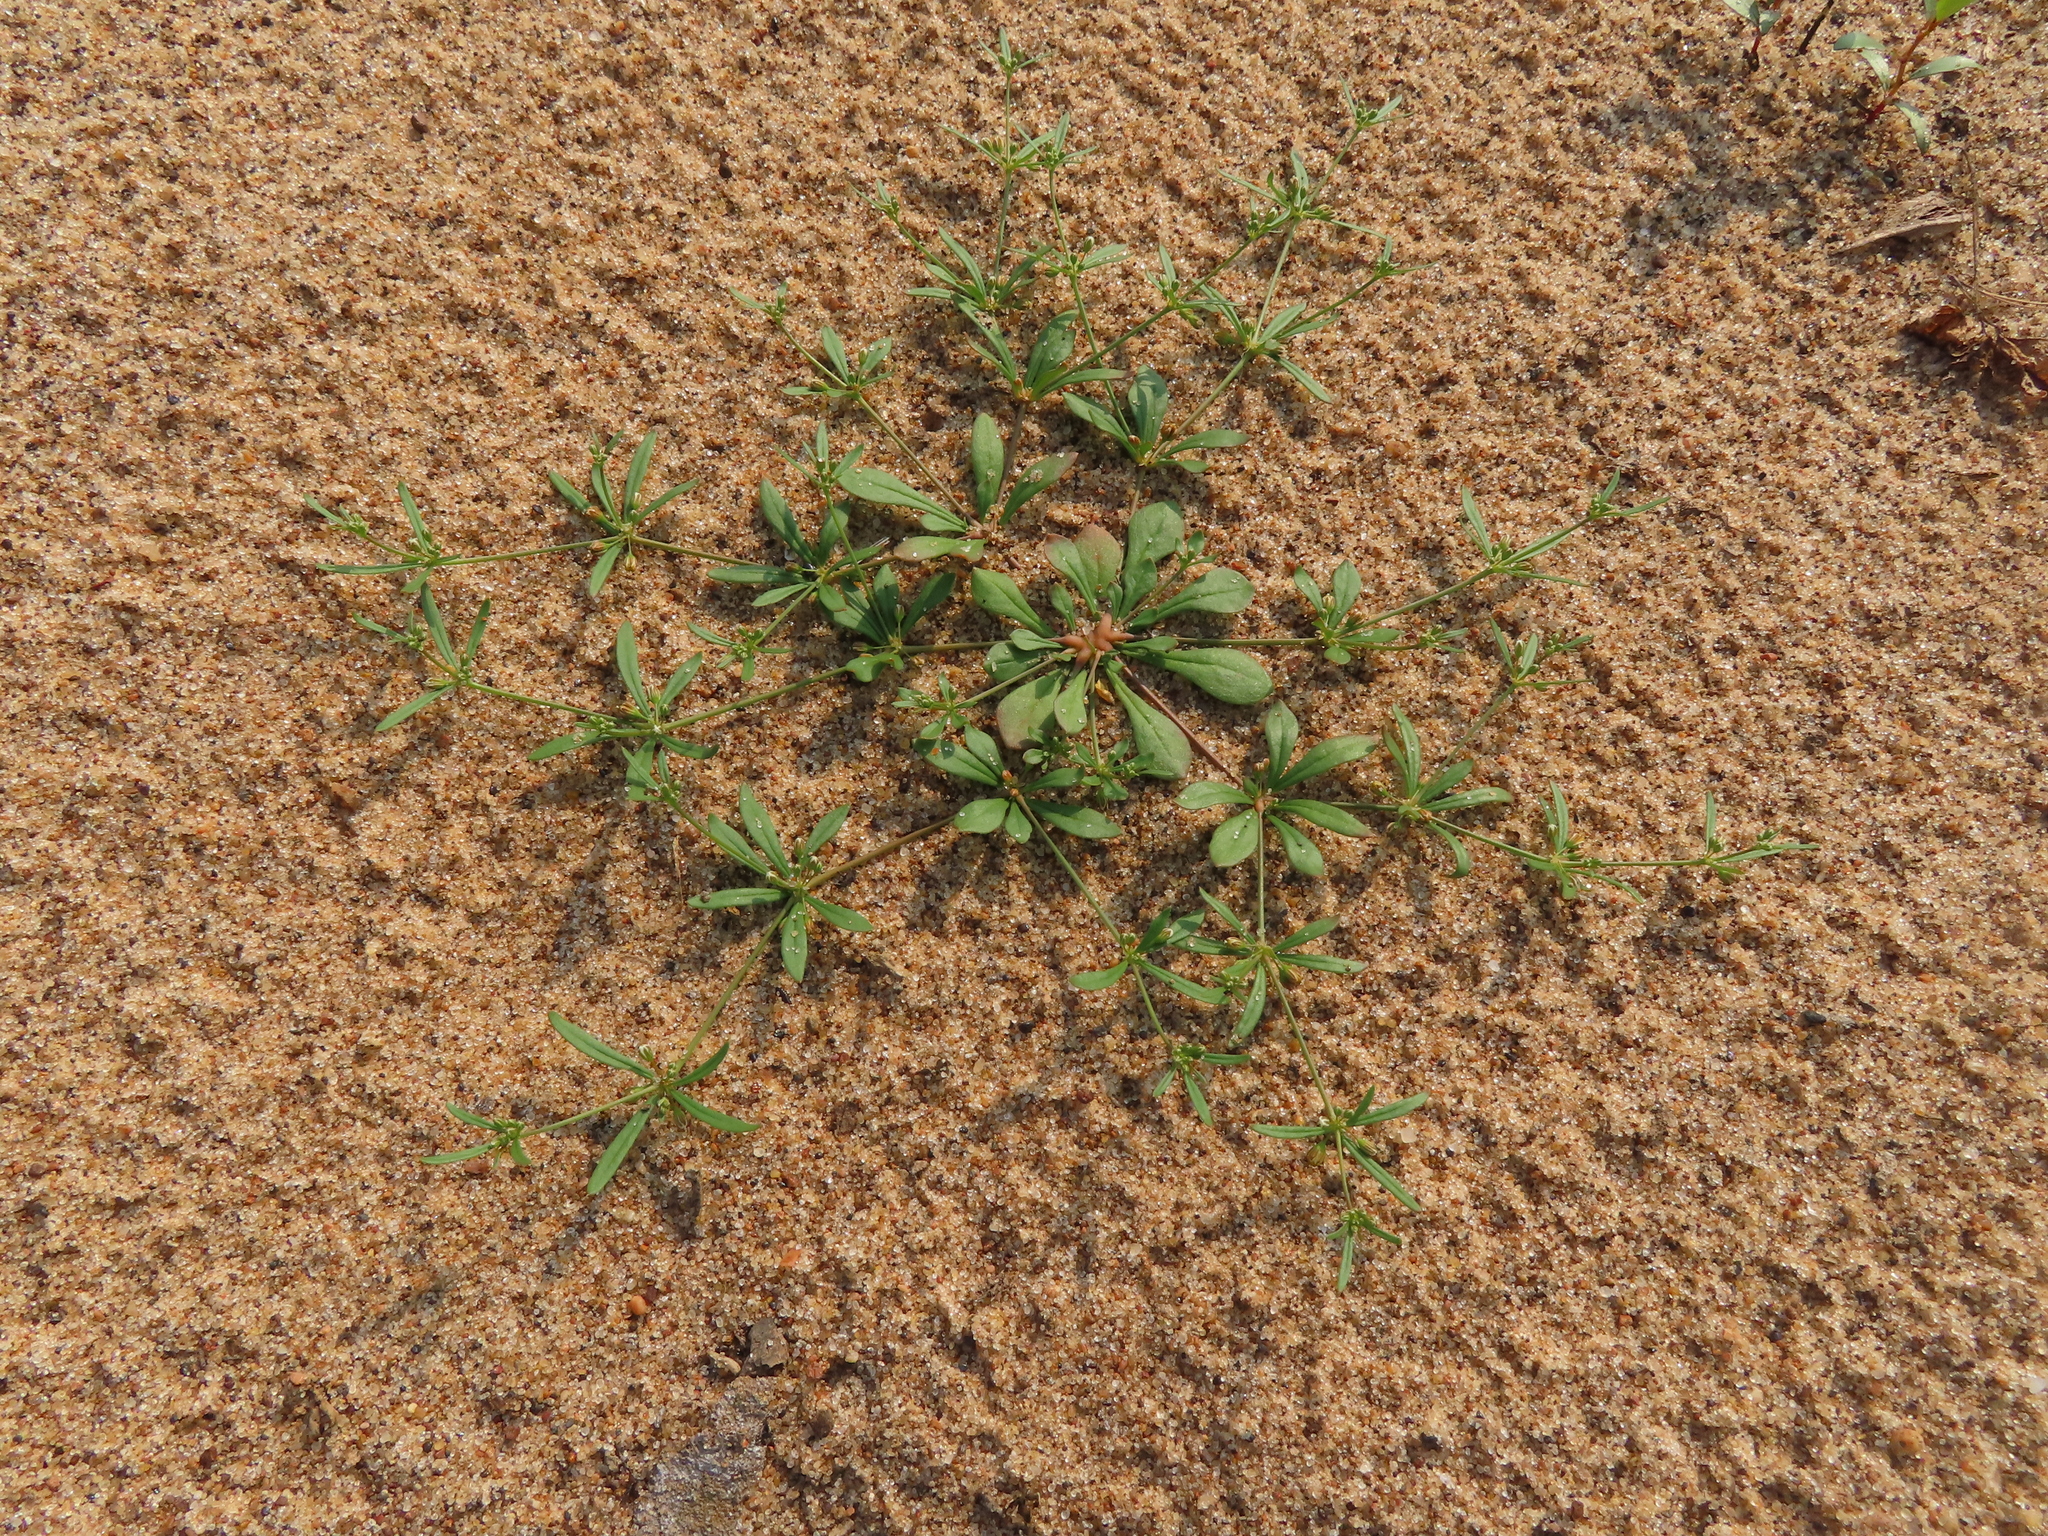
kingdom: Plantae
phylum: Tracheophyta
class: Magnoliopsida
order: Caryophyllales
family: Molluginaceae
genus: Mollugo
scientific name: Mollugo verticillata
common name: Green carpetweed
